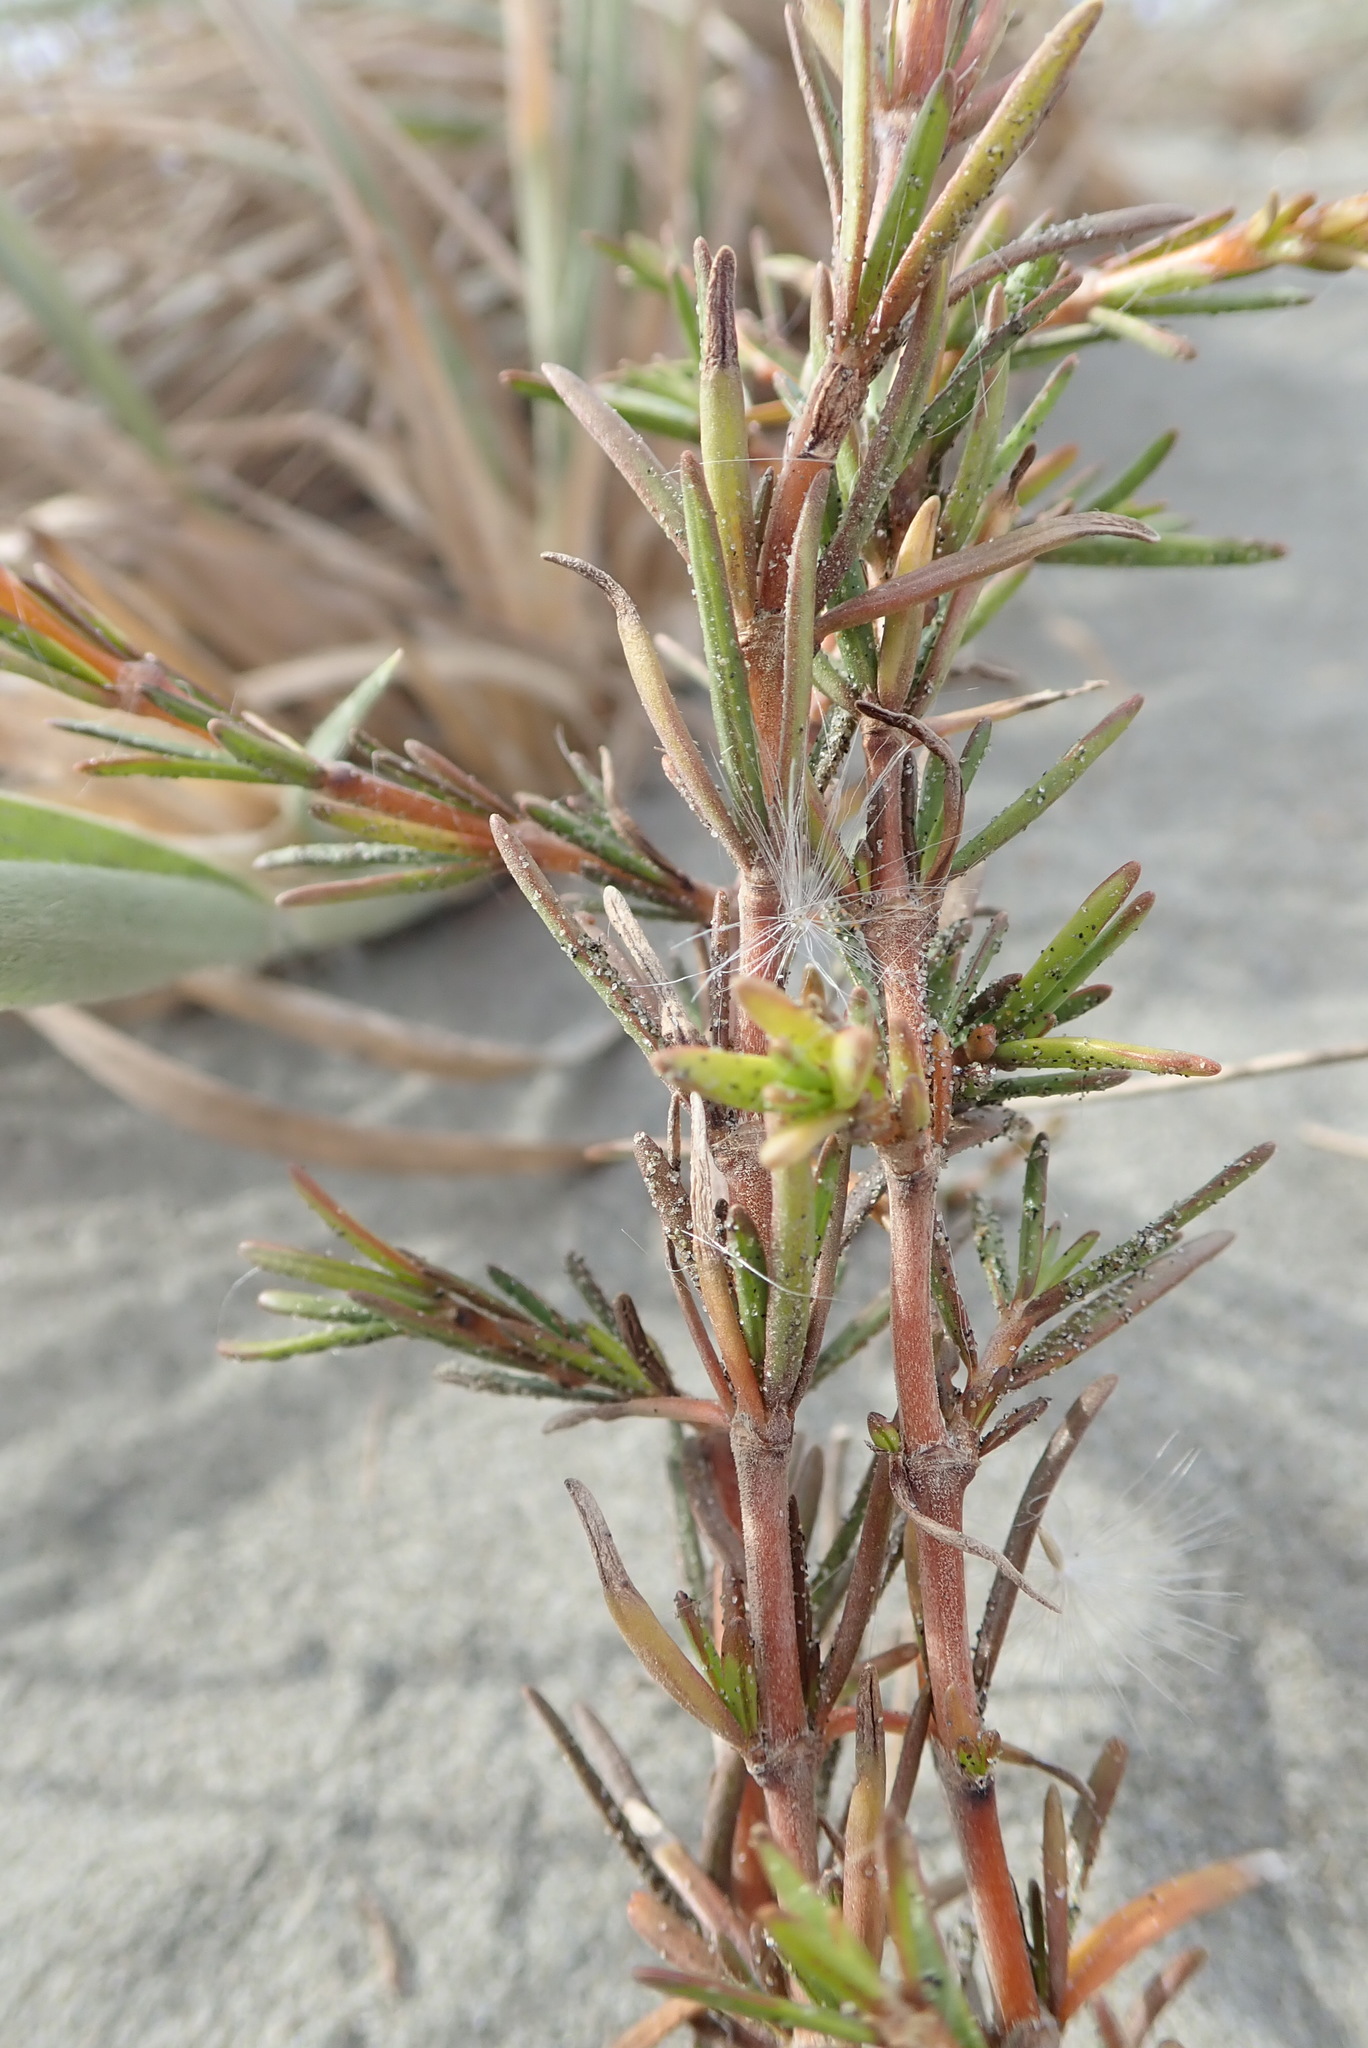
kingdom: Plantae
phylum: Tracheophyta
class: Magnoliopsida
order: Gentianales
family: Rubiaceae
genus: Coprosma
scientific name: Coprosma acerosa
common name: Sand coprosma
